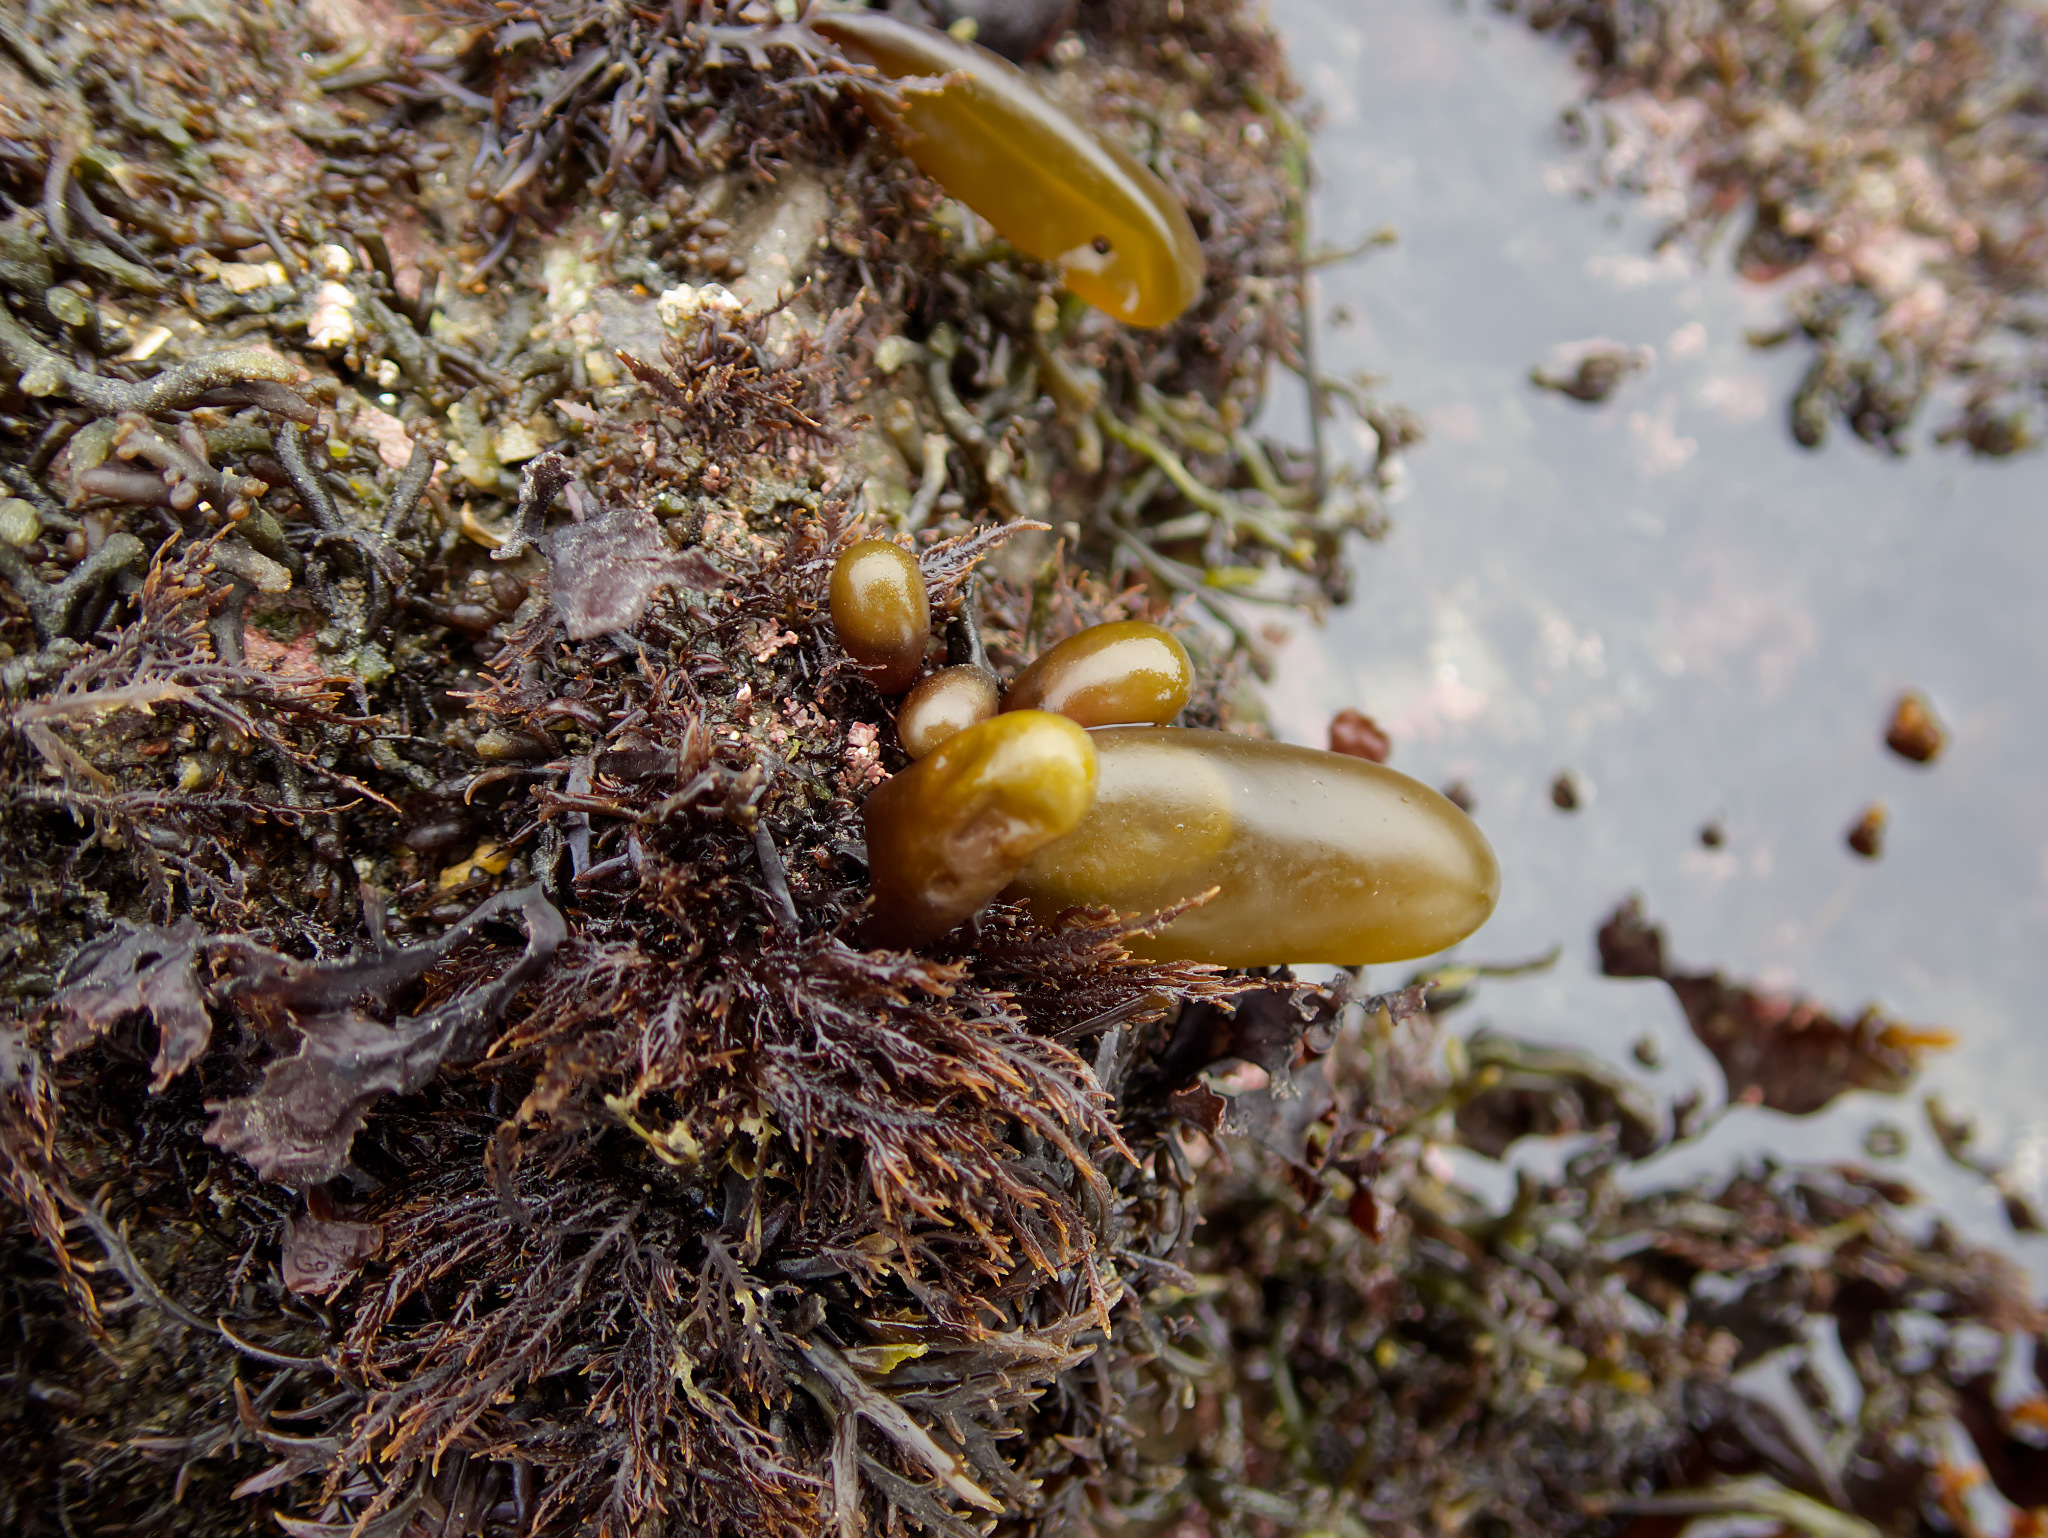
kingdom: Plantae
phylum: Rhodophyta
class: Florideophyceae
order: Palmariales
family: Palmariaceae
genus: Halosaccion
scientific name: Halosaccion glandiforme
